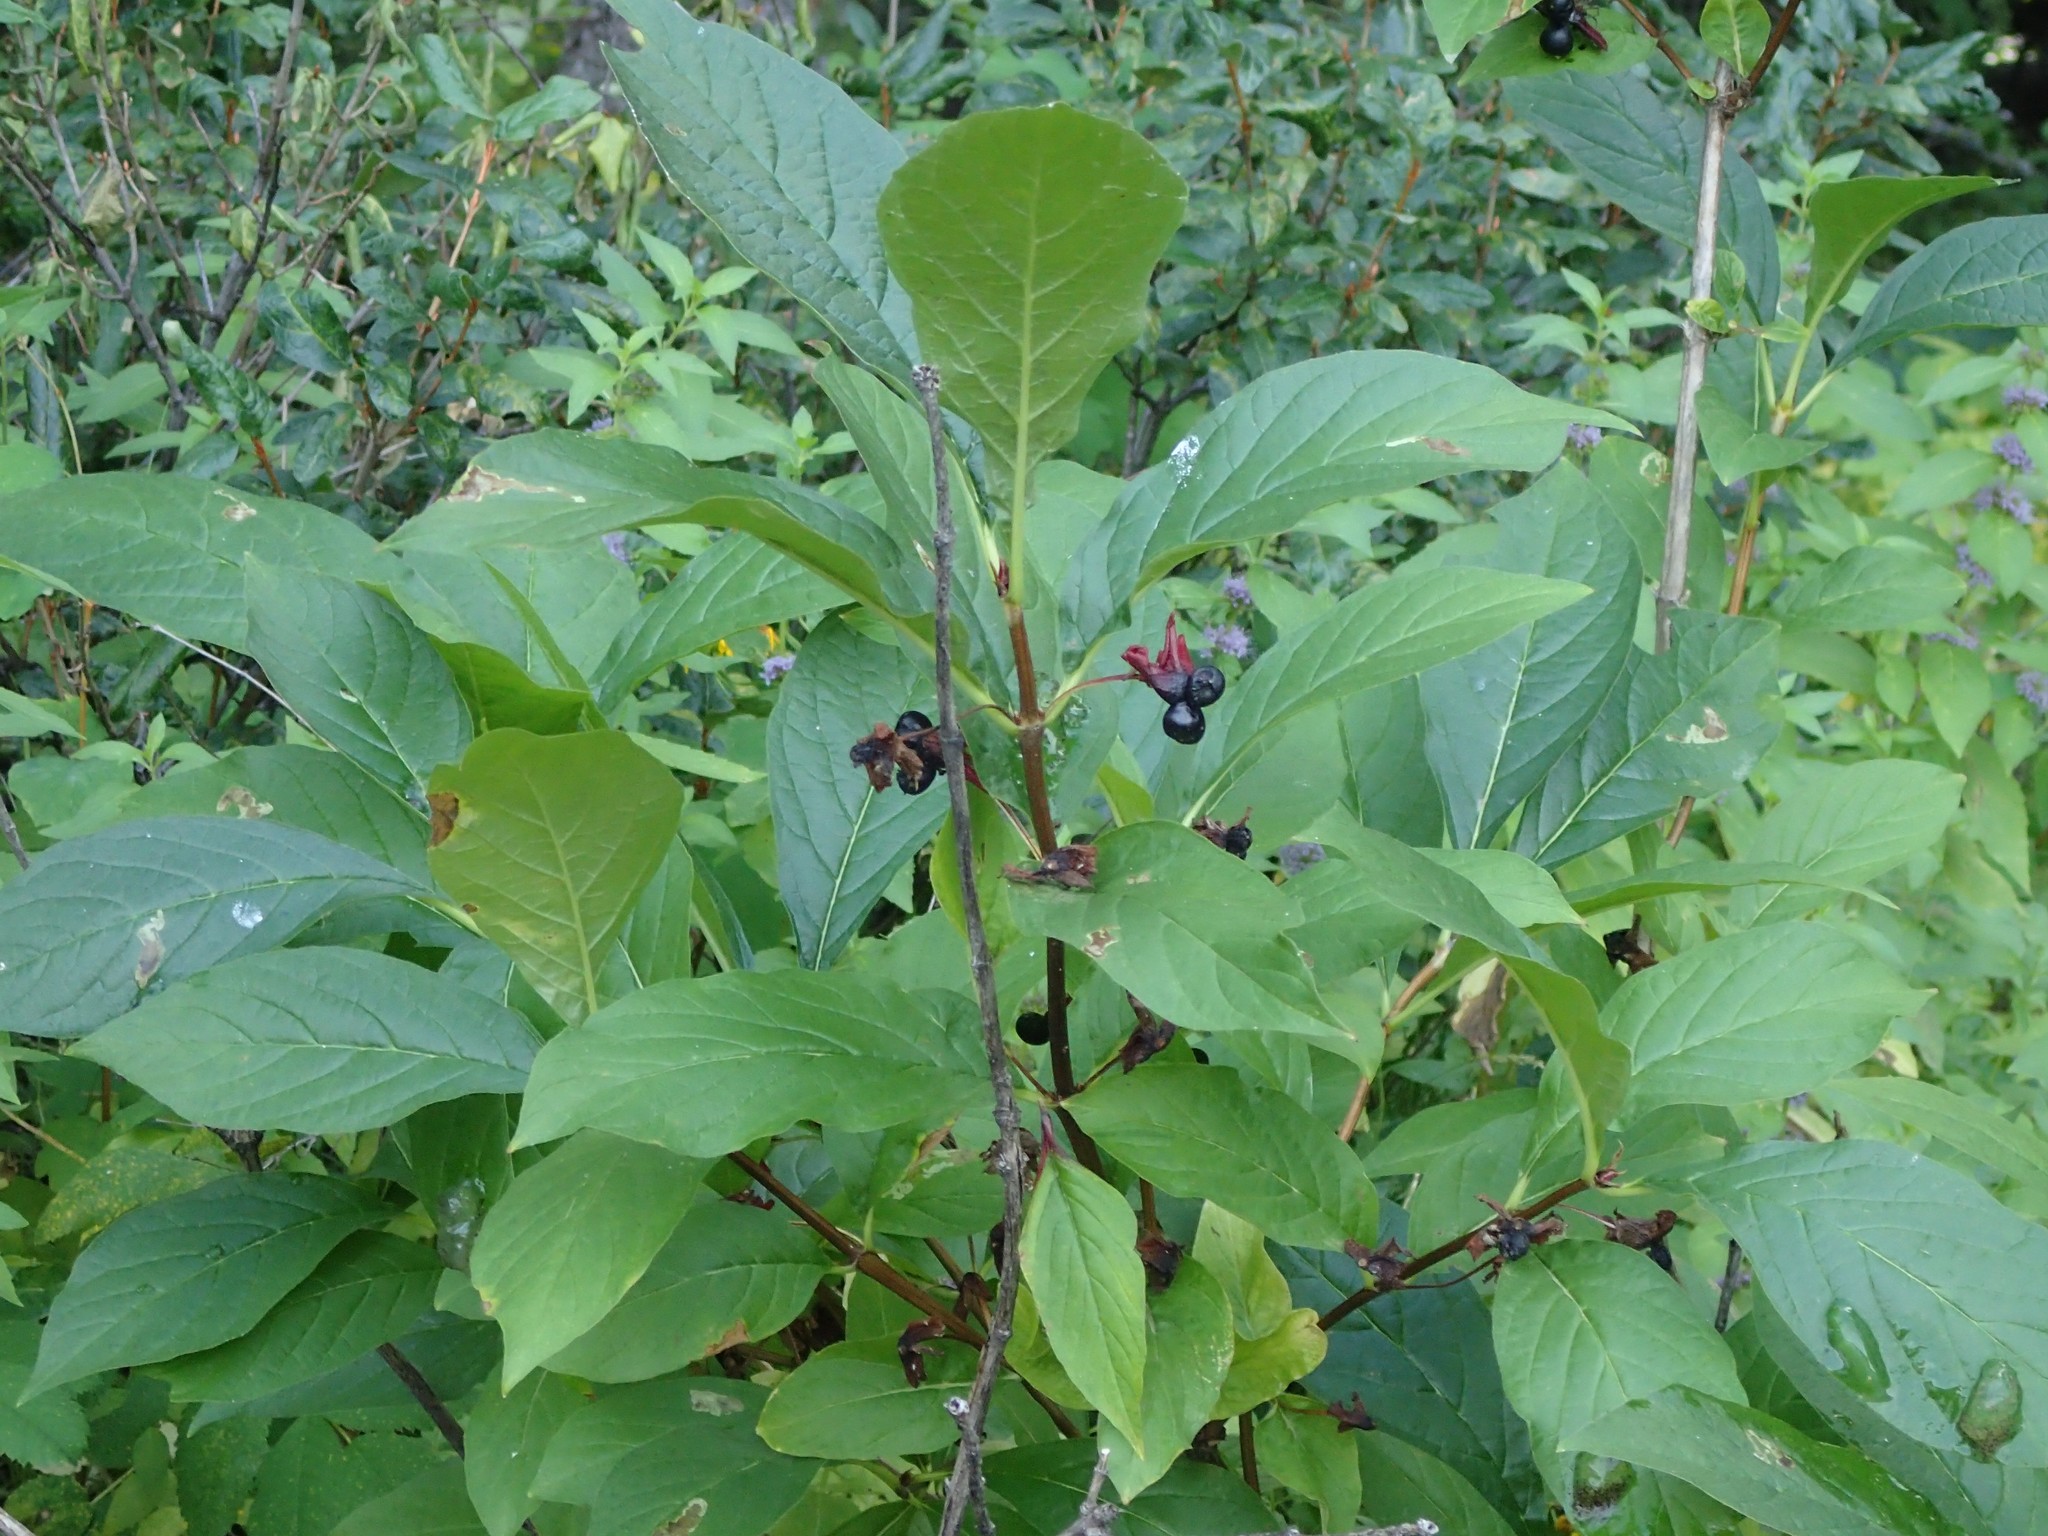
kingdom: Plantae
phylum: Tracheophyta
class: Magnoliopsida
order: Dipsacales
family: Caprifoliaceae
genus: Lonicera
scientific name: Lonicera involucrata
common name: Californian honeysuckle
